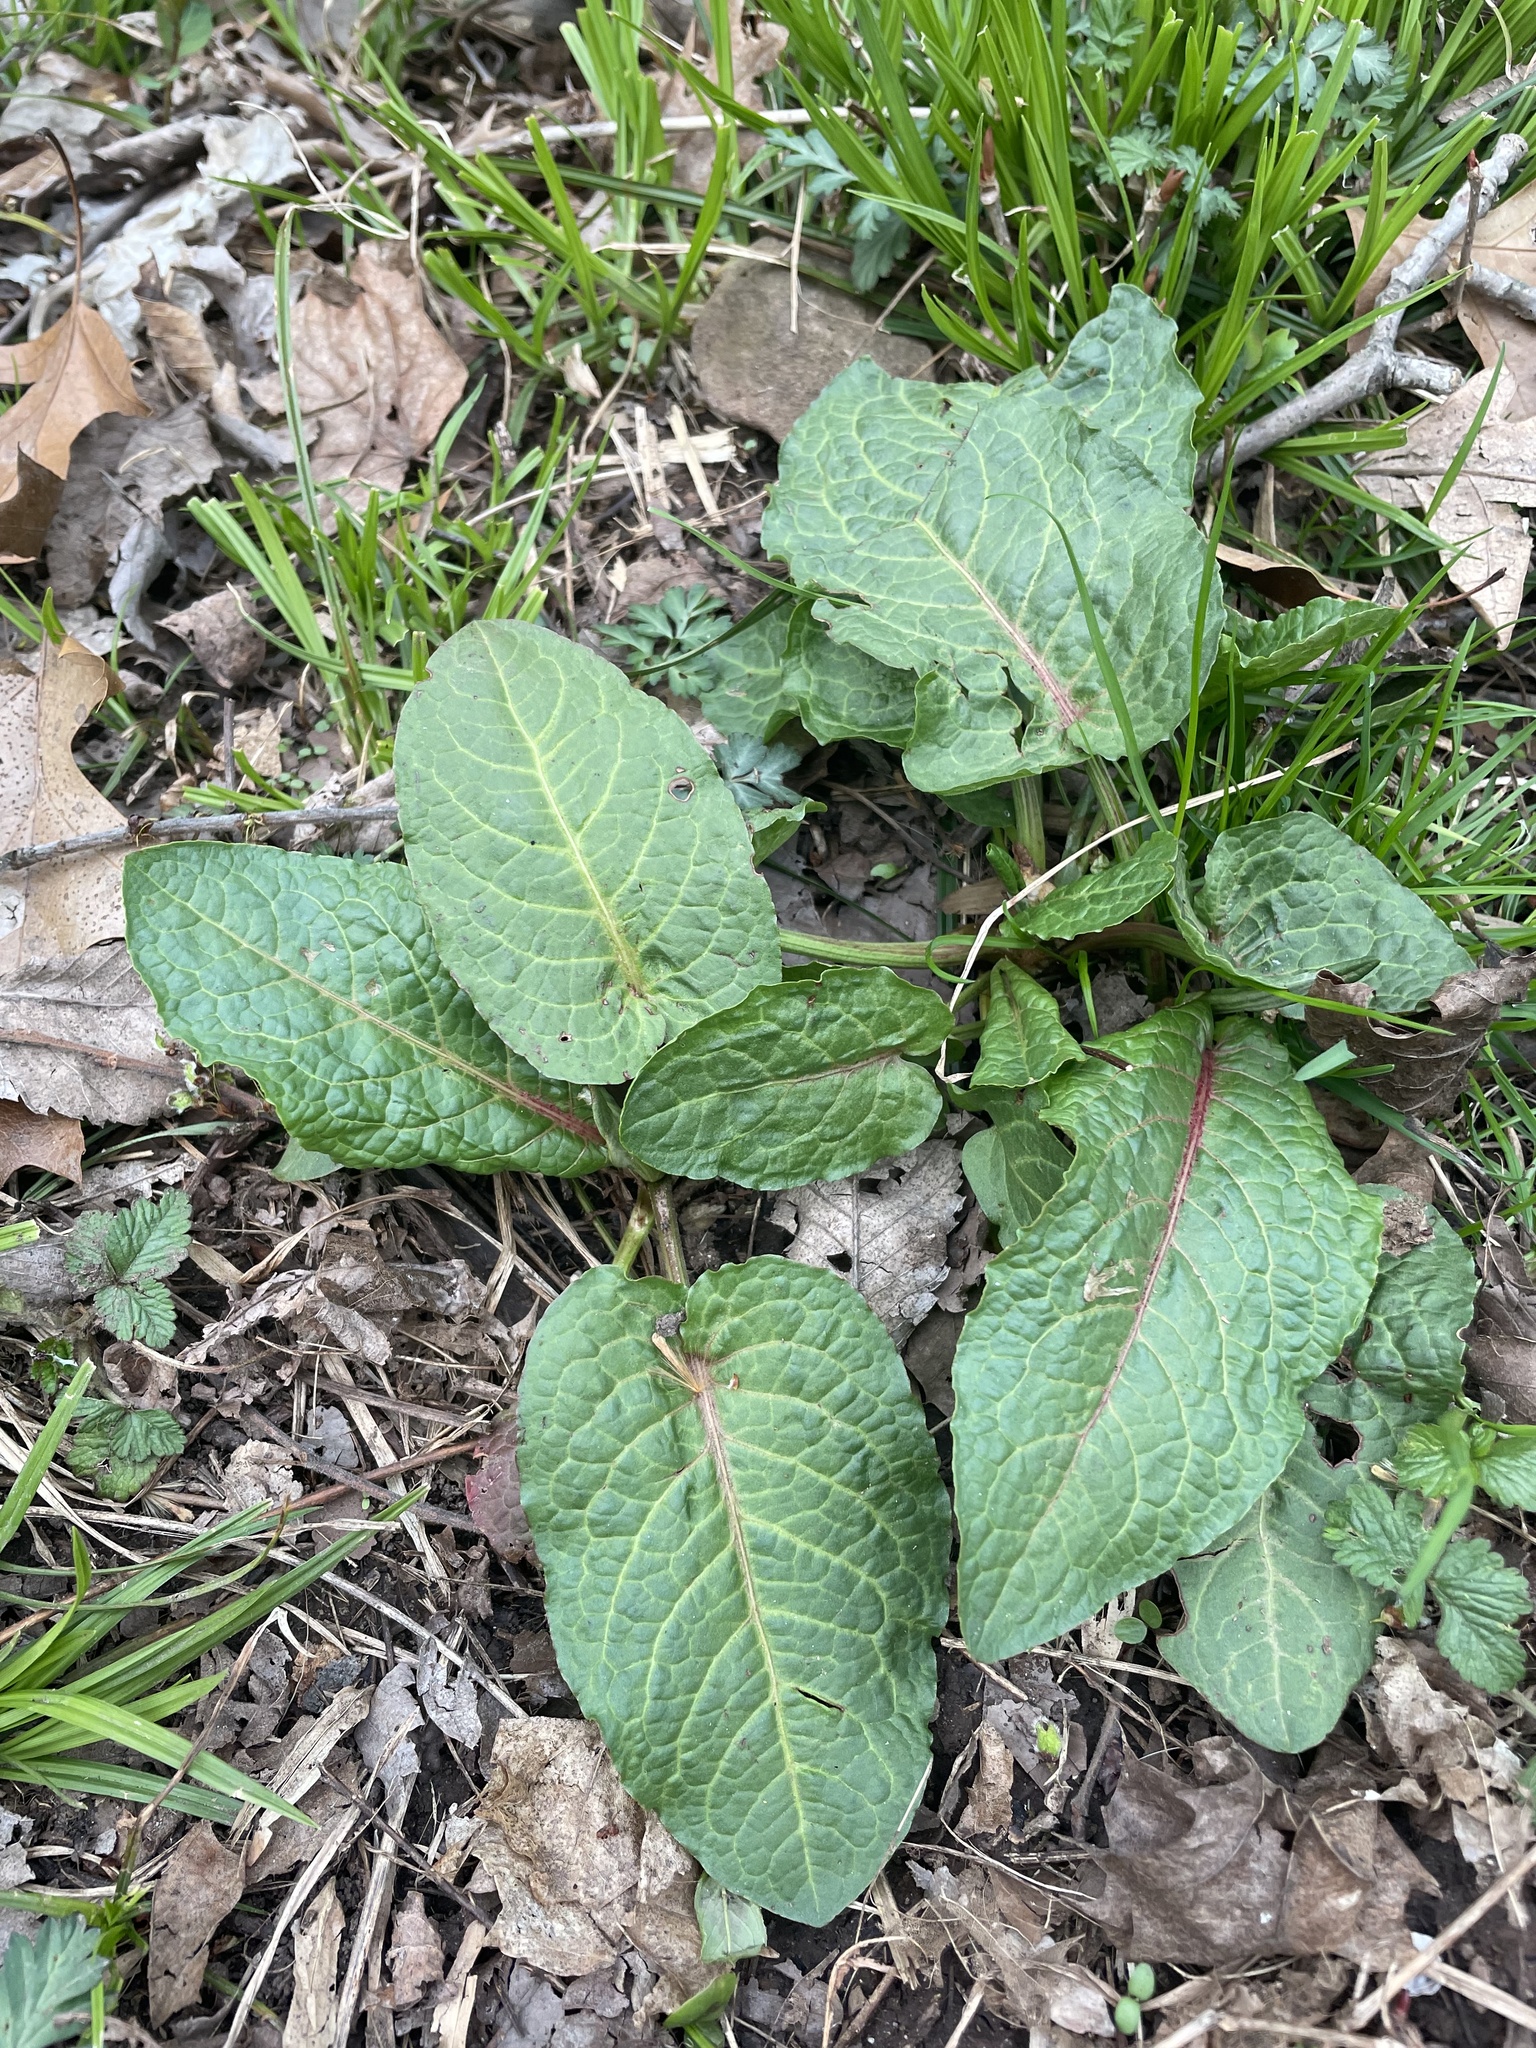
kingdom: Plantae
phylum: Tracheophyta
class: Magnoliopsida
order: Caryophyllales
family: Polygonaceae
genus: Rumex
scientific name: Rumex obtusifolius
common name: Bitter dock
